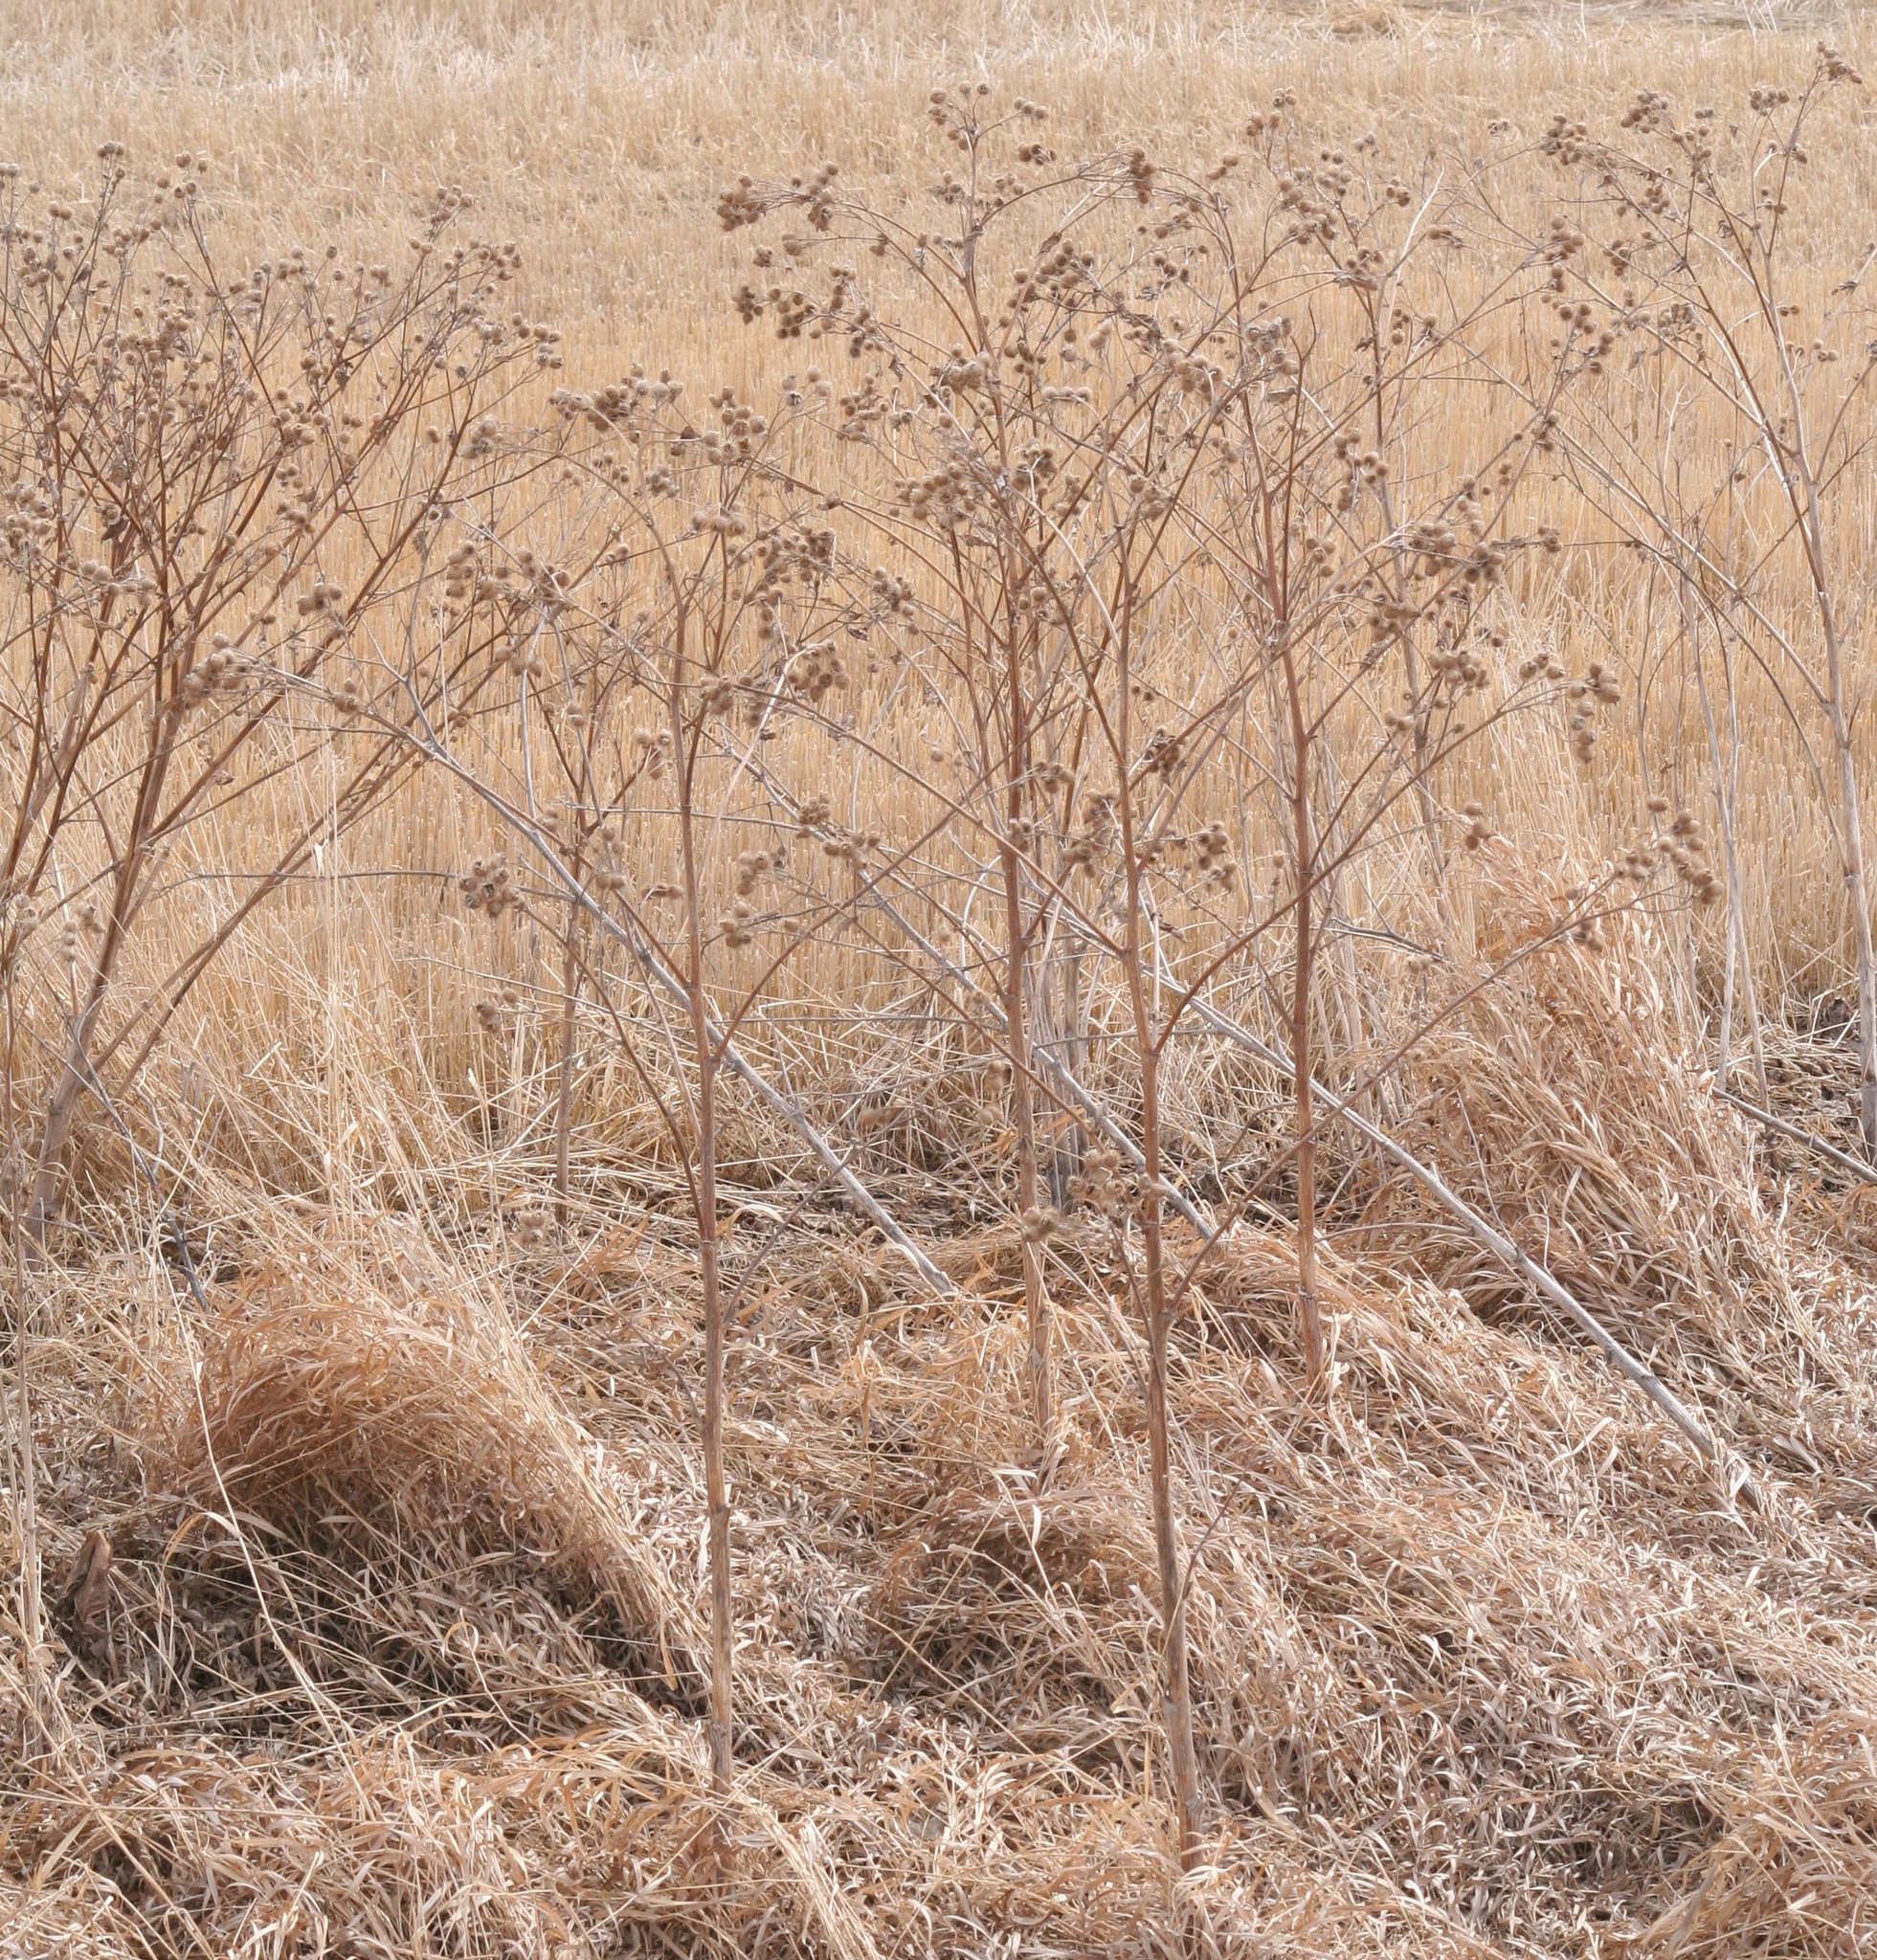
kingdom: Plantae
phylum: Tracheophyta
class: Magnoliopsida
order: Asterales
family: Asteraceae
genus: Arctium
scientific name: Arctium lappa
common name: Greater burdock
